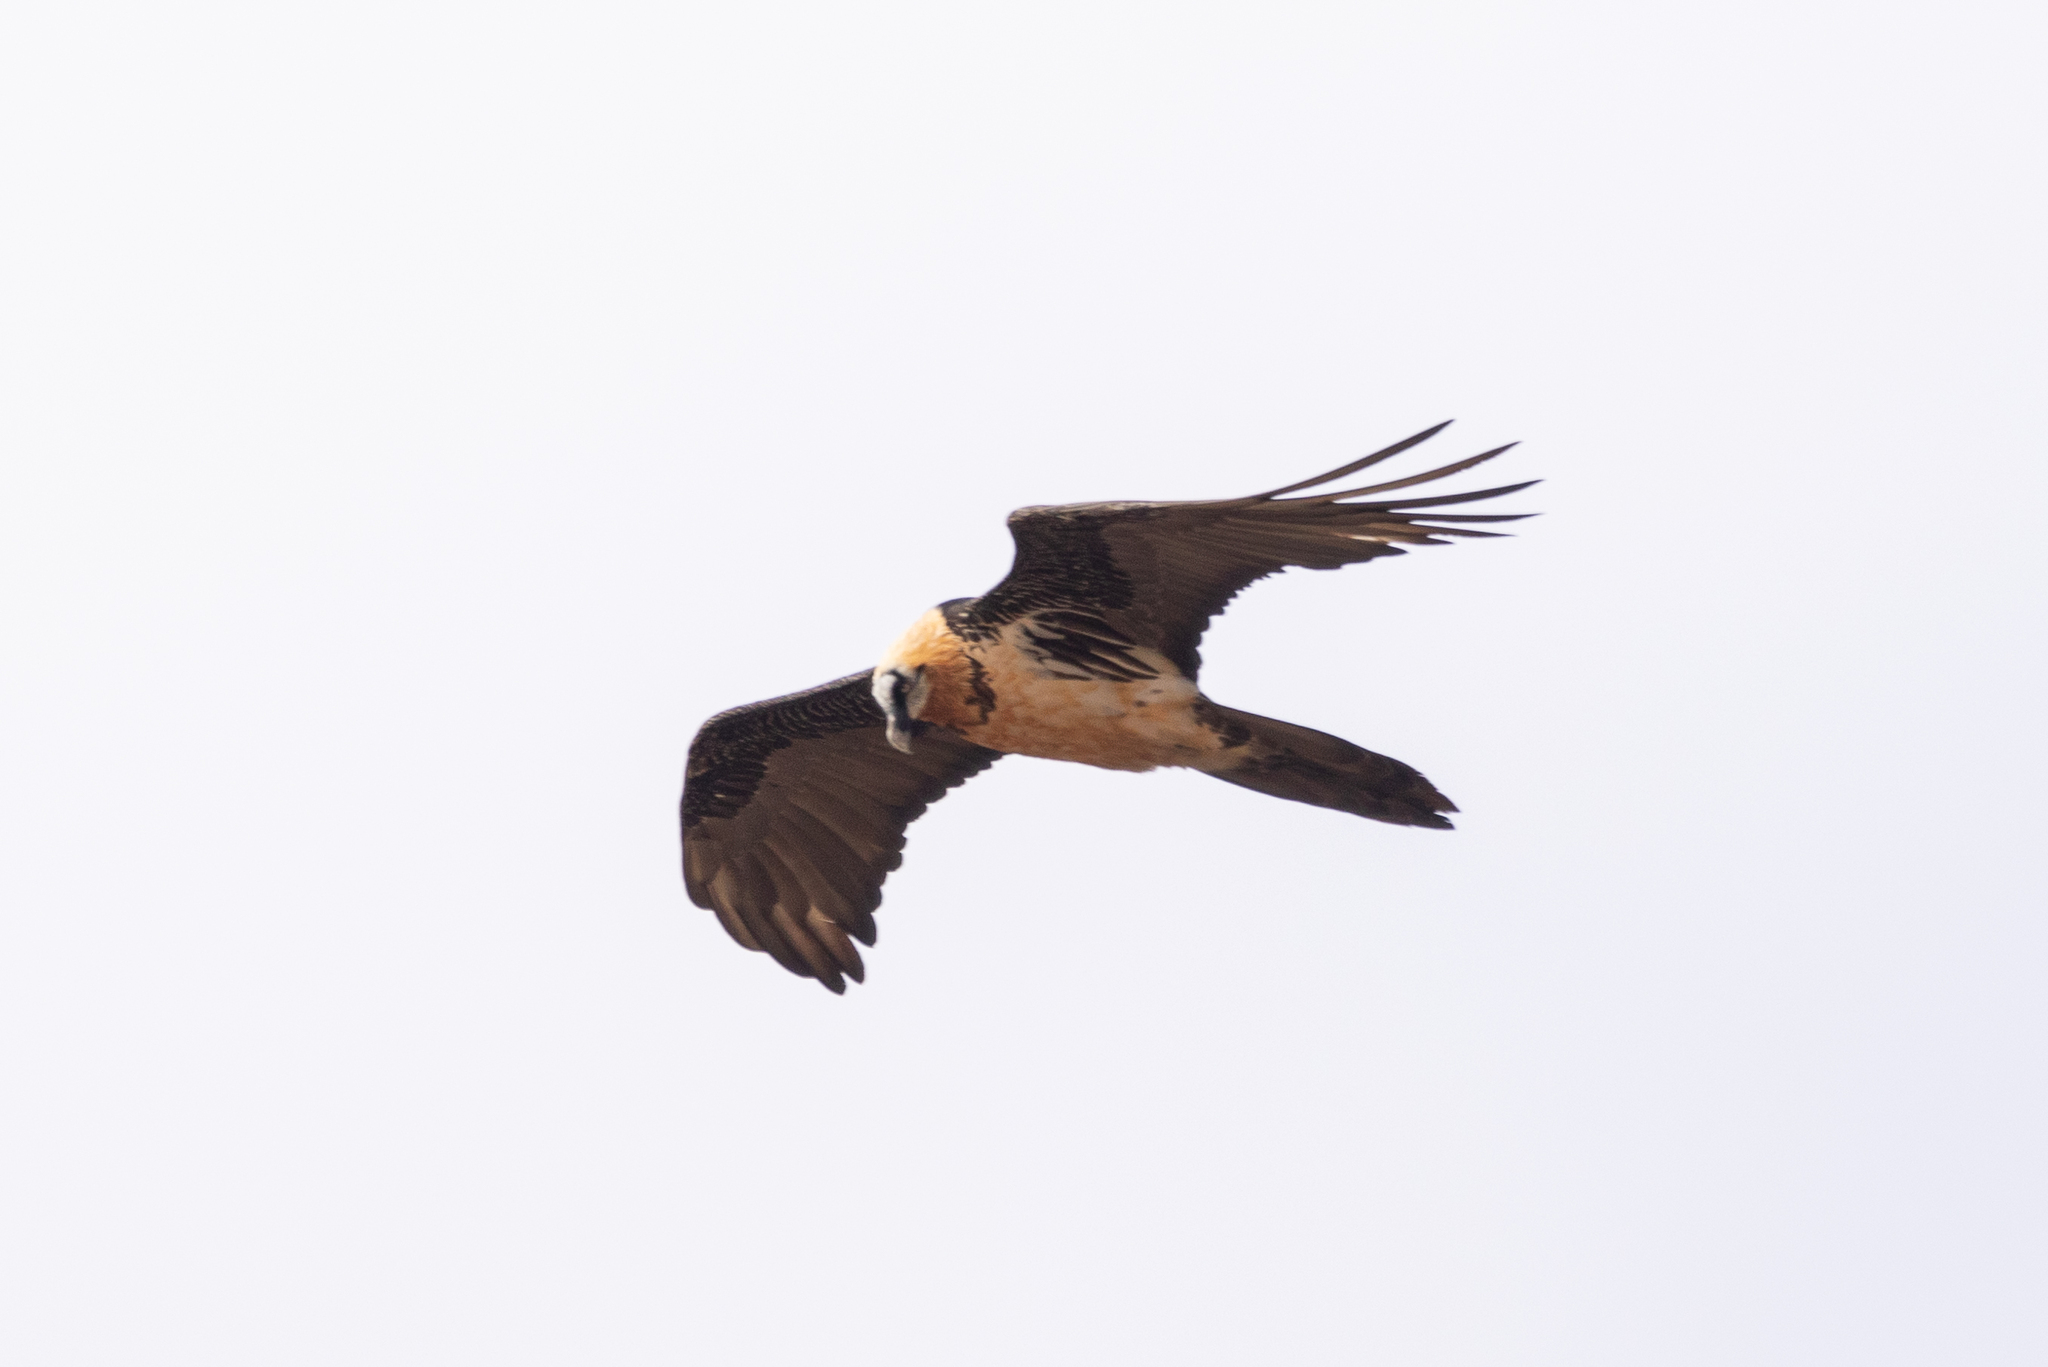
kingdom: Animalia
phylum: Chordata
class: Aves
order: Accipitriformes
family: Accipitridae
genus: Gypaetus
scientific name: Gypaetus barbatus
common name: Bearded vulture
